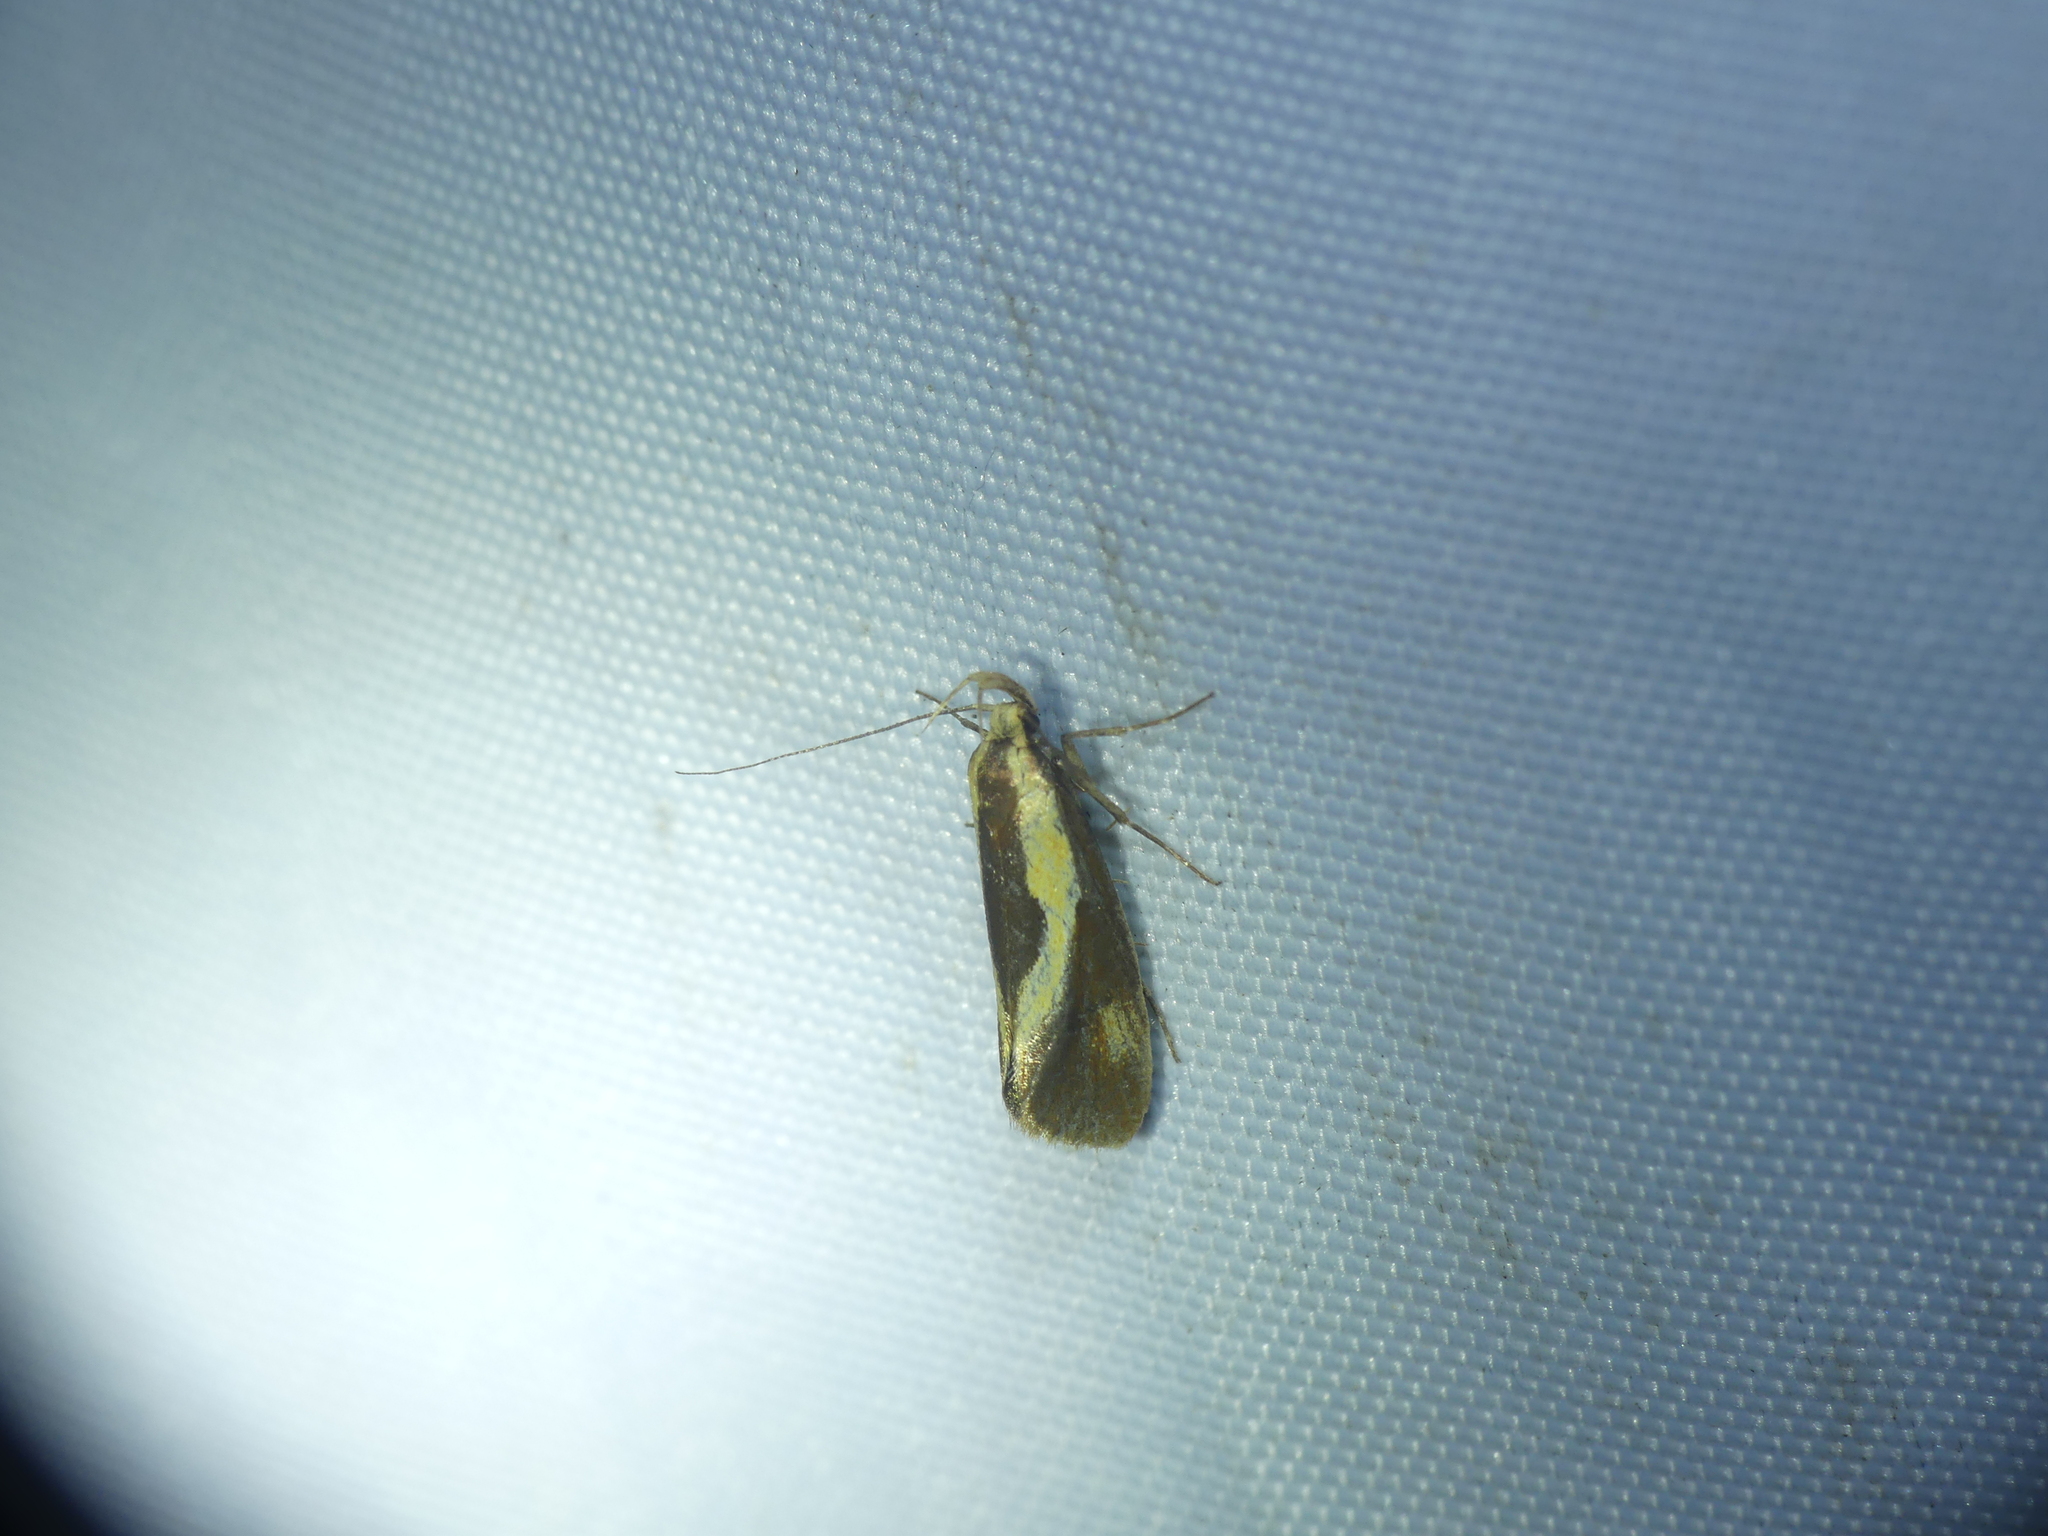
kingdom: Animalia
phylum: Arthropoda
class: Insecta
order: Lepidoptera
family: Oecophoridae
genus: Harpella
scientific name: Harpella forficella
